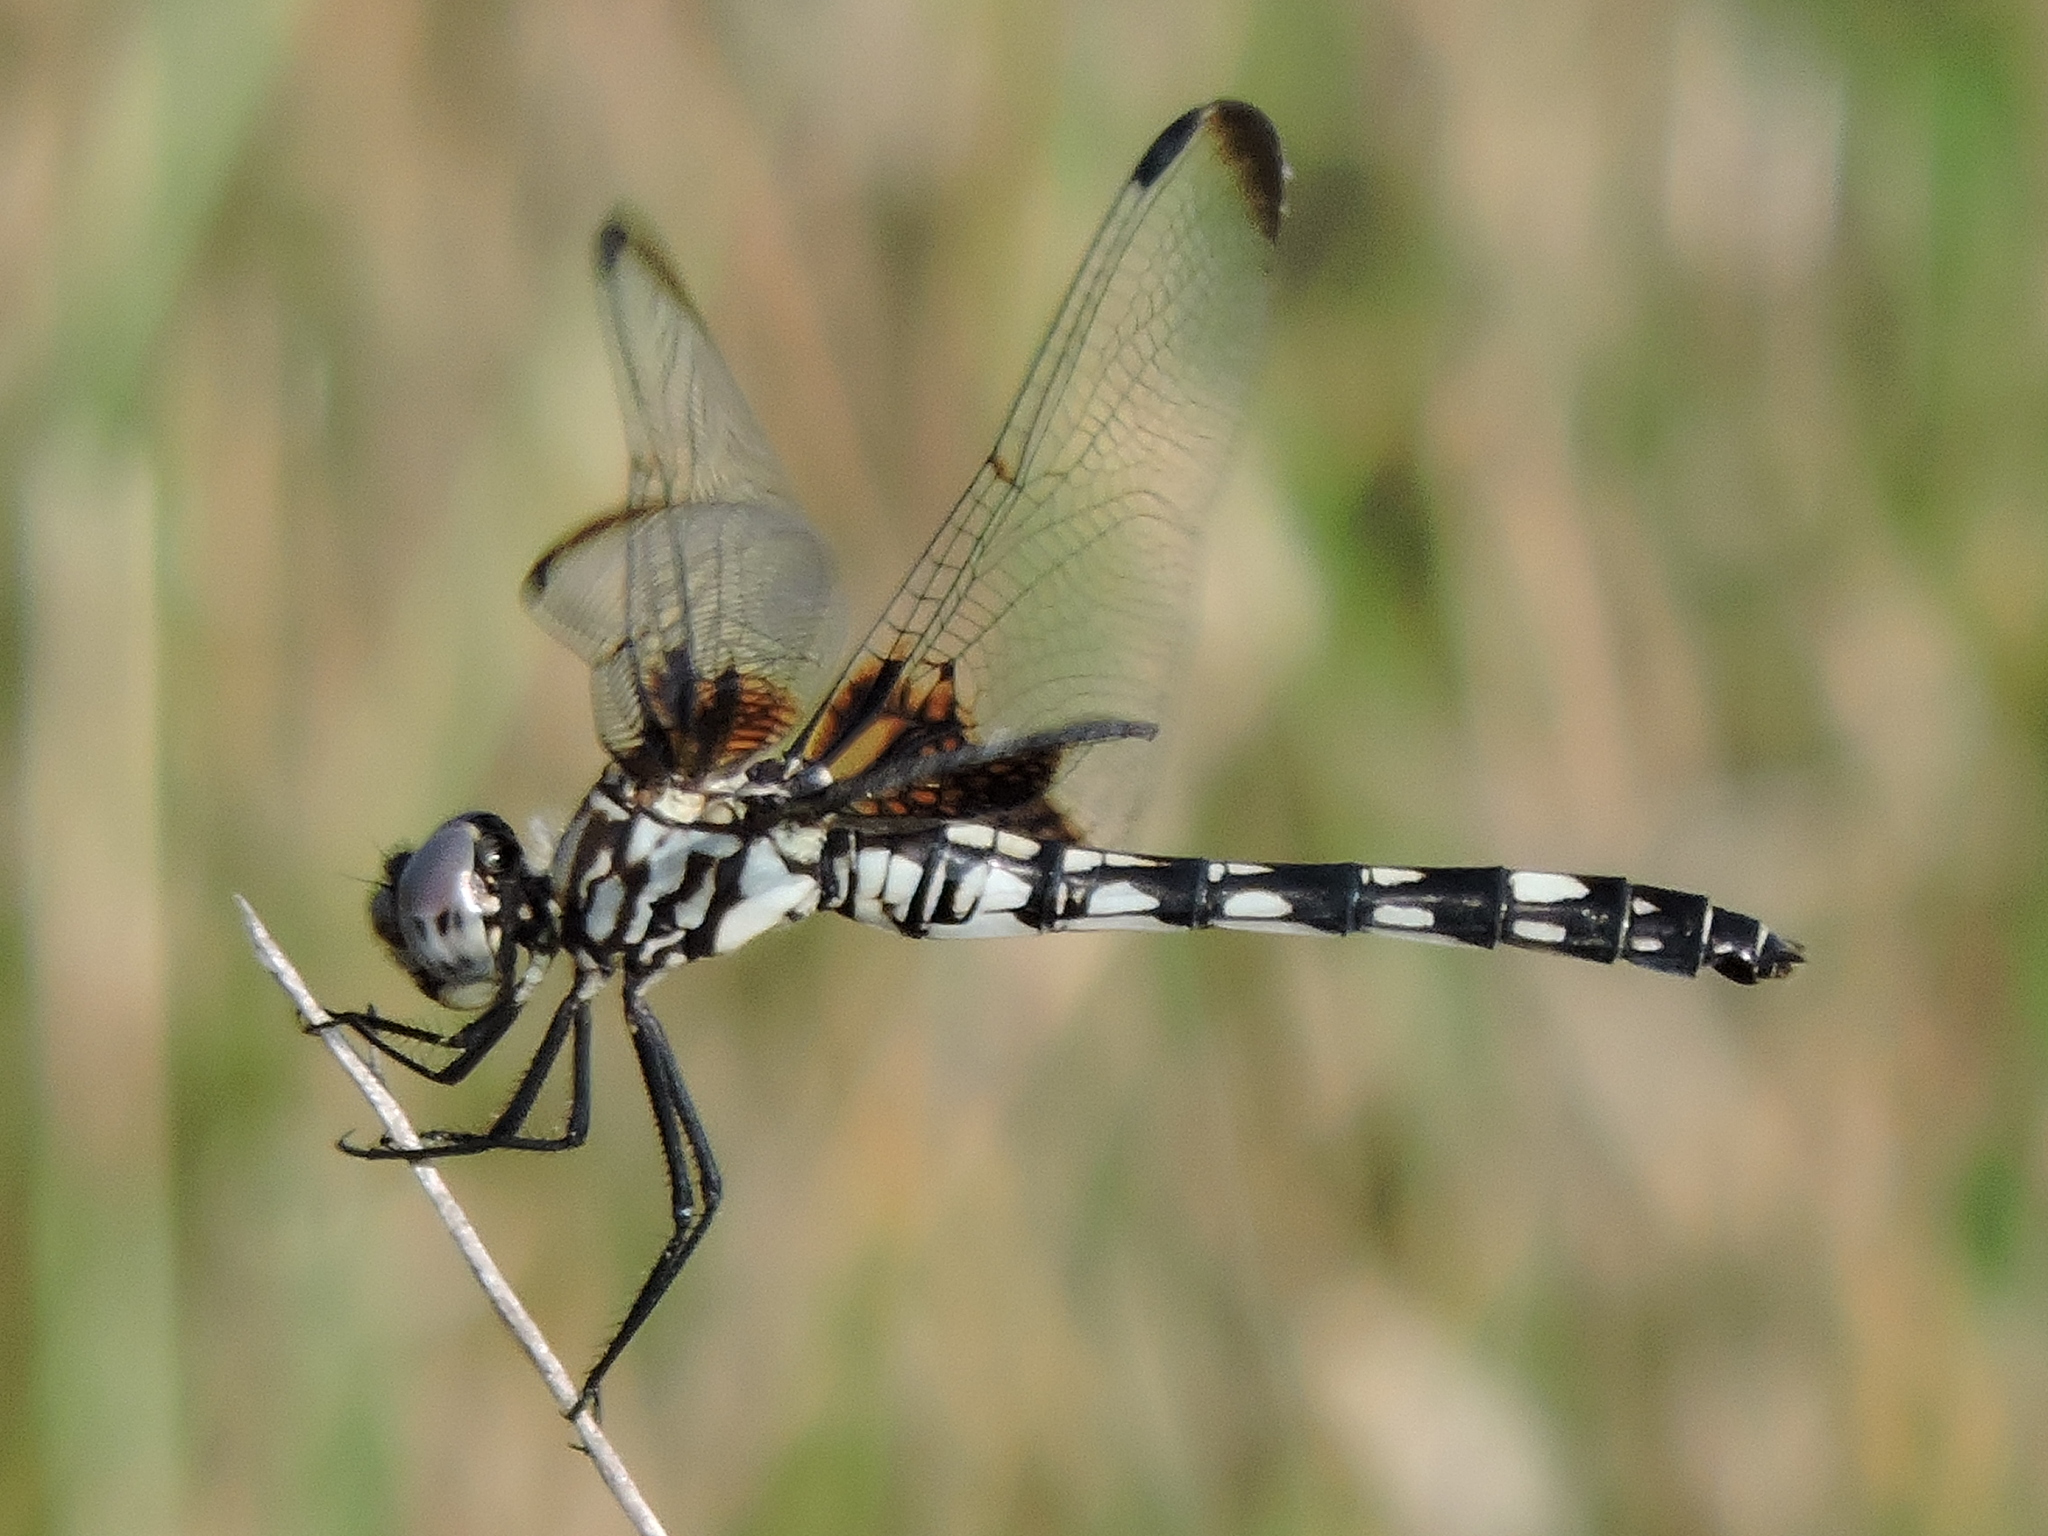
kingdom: Animalia
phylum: Arthropoda
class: Insecta
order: Odonata
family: Libellulidae
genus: Dythemis
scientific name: Dythemis fugax
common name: Checkered setwing
